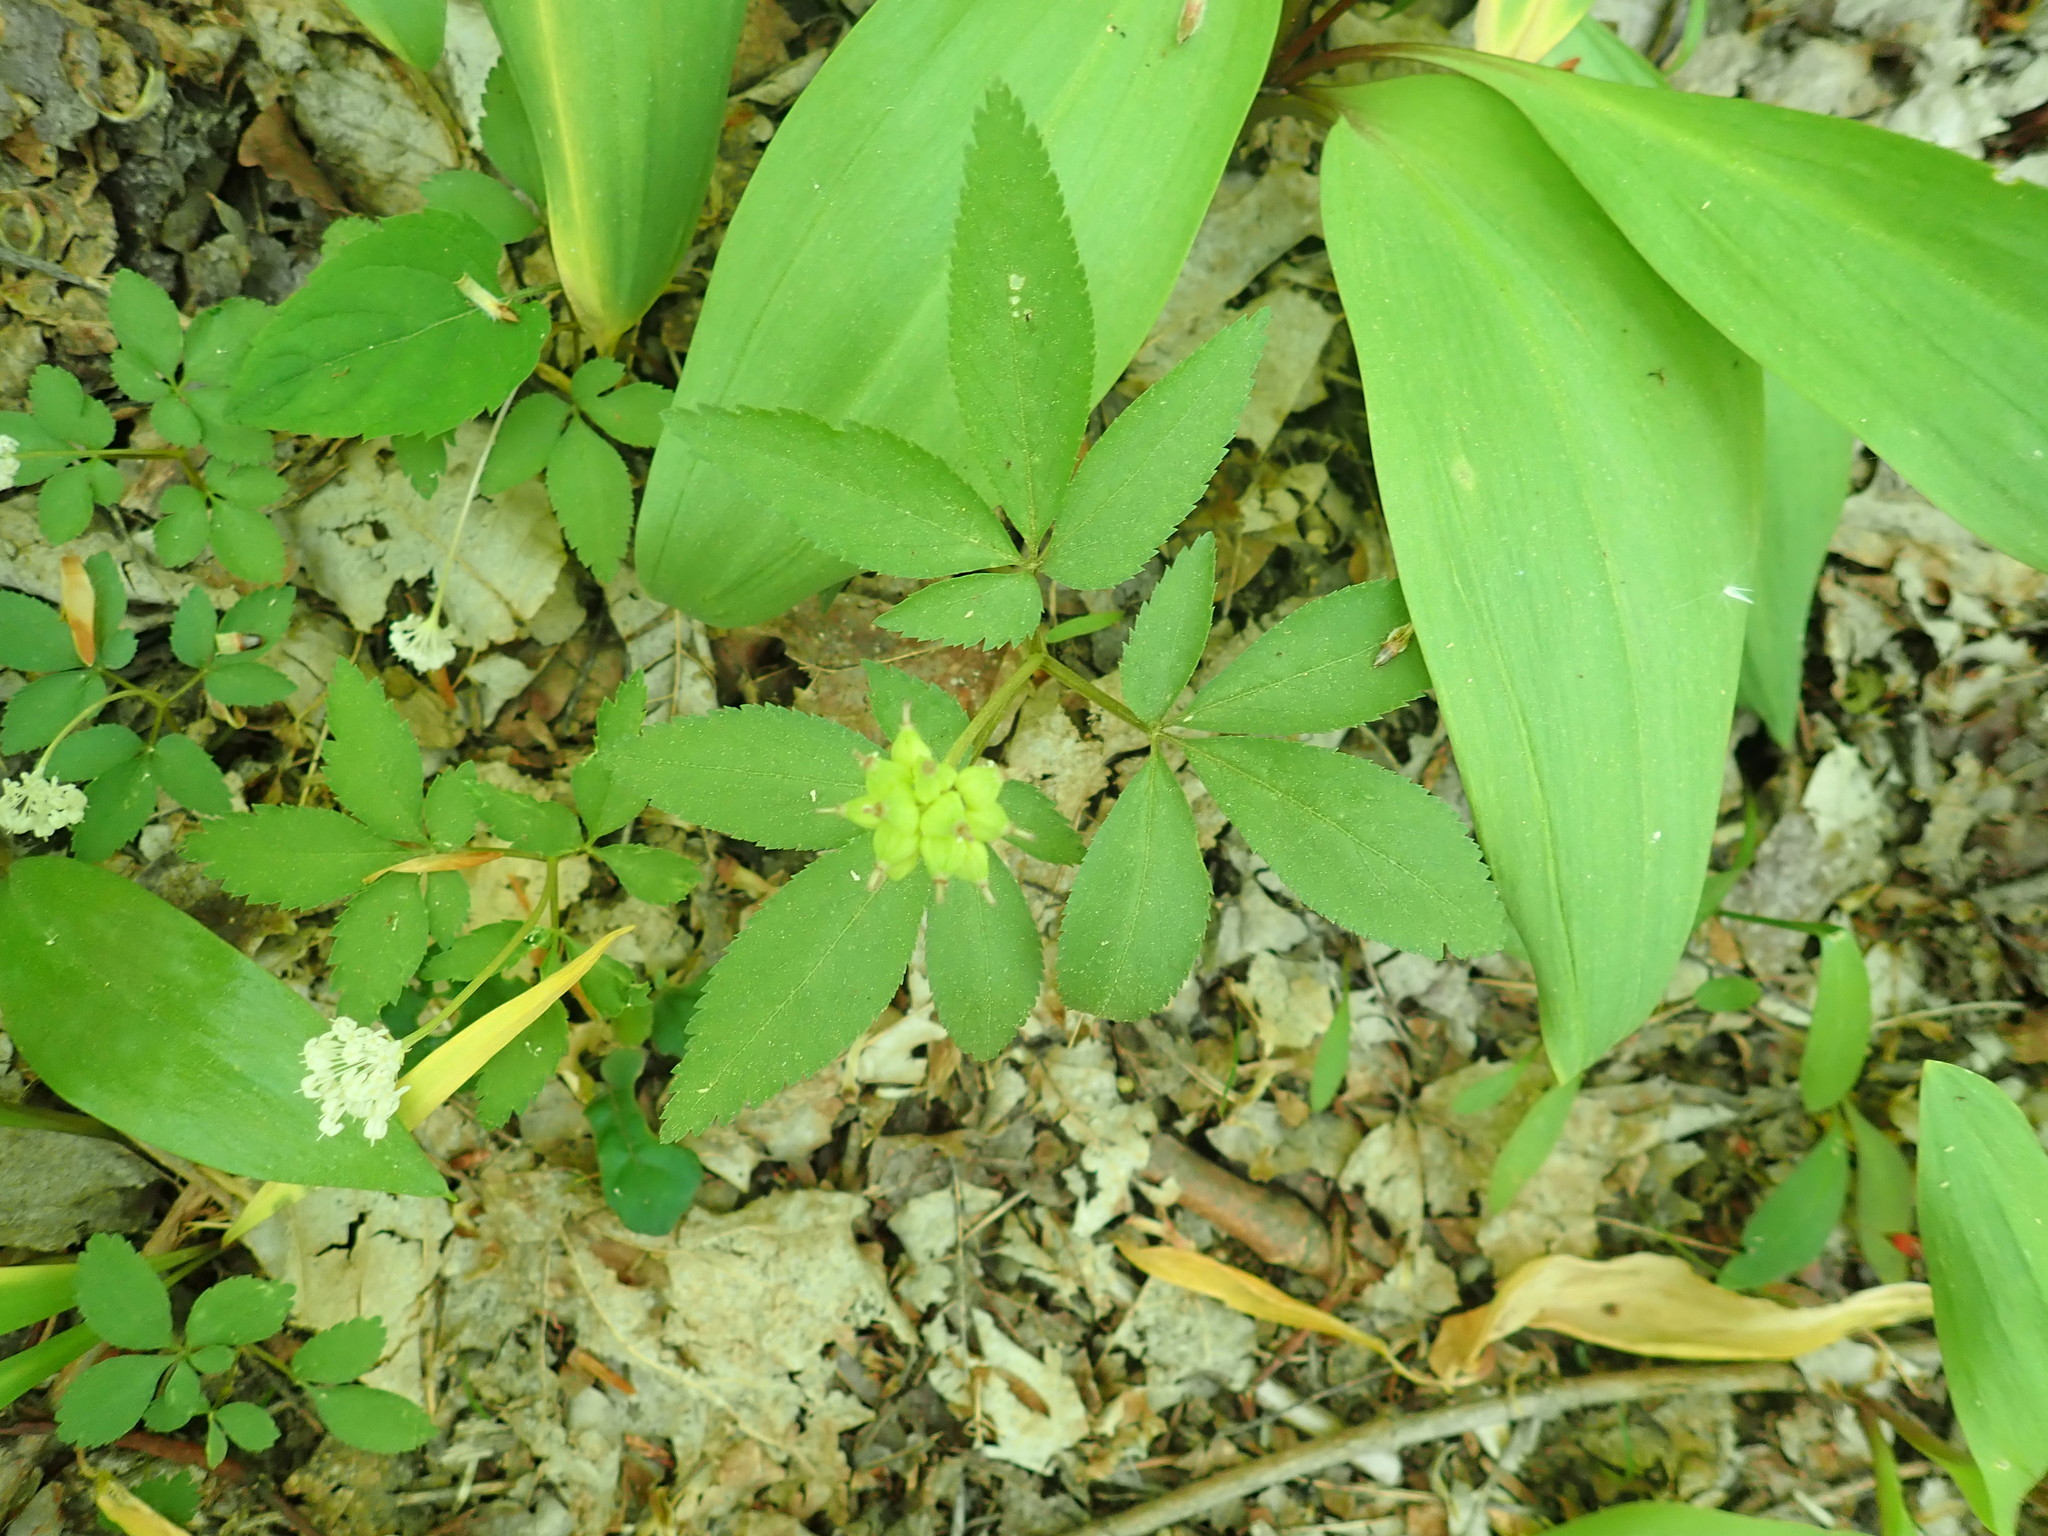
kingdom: Plantae
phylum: Tracheophyta
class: Magnoliopsida
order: Apiales
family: Araliaceae
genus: Panax
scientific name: Panax trifolius
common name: Dwarf ginseng
